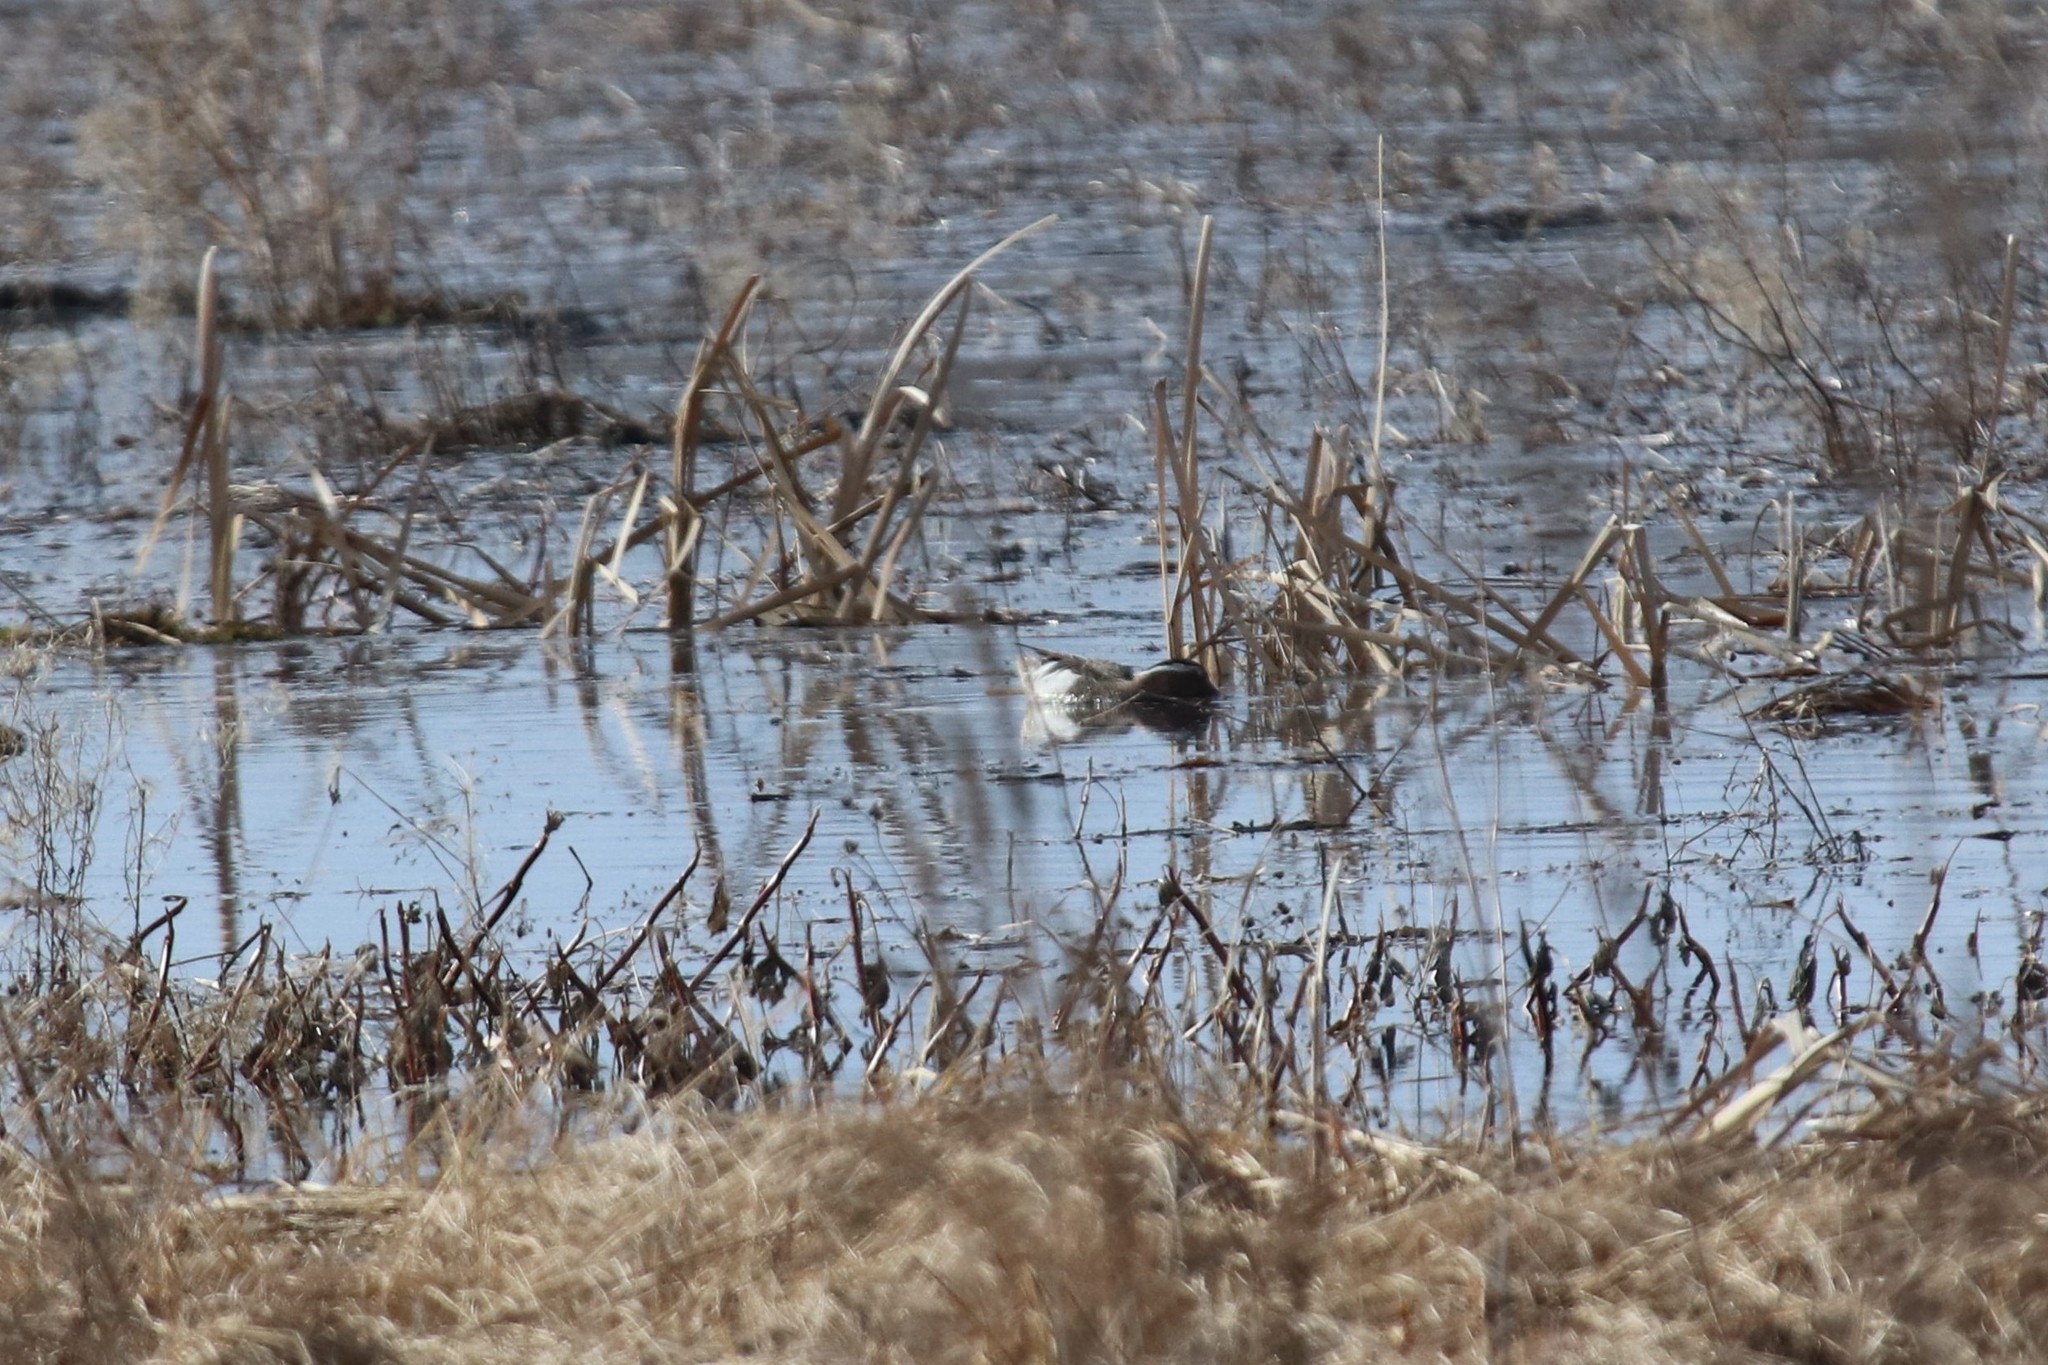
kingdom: Animalia
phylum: Chordata
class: Aves
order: Anseriformes
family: Anatidae
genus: Spatula
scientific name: Spatula querquedula
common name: Garganey
